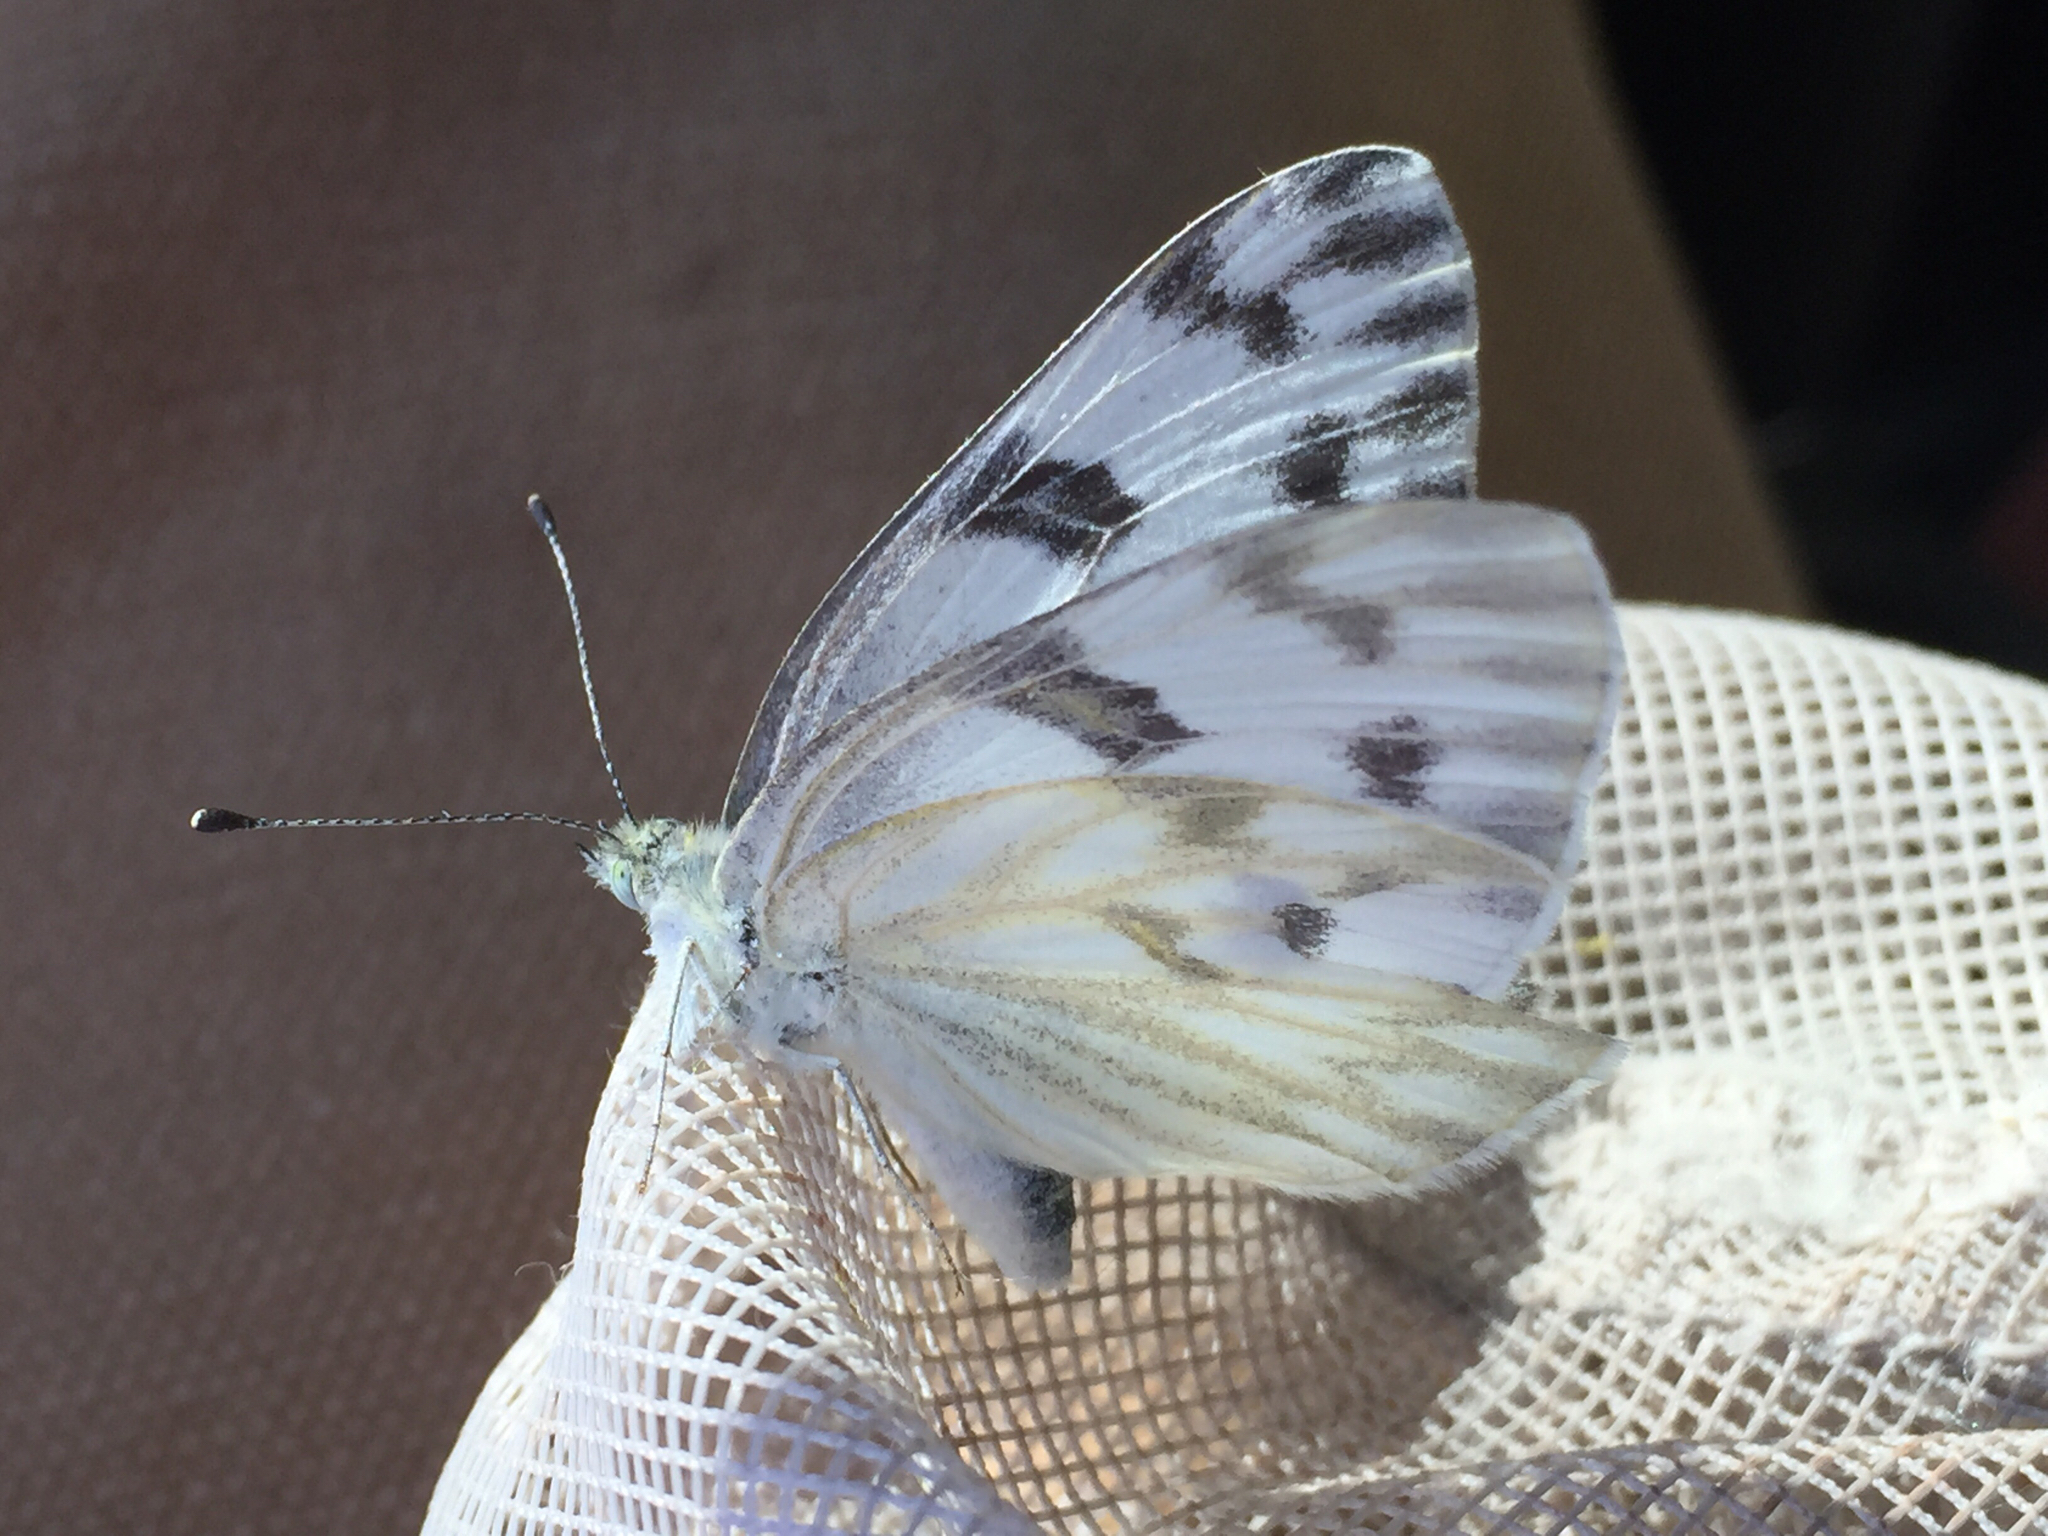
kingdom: Animalia
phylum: Arthropoda
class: Insecta
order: Lepidoptera
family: Pieridae
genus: Pontia
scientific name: Pontia protodice
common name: Checkered white
